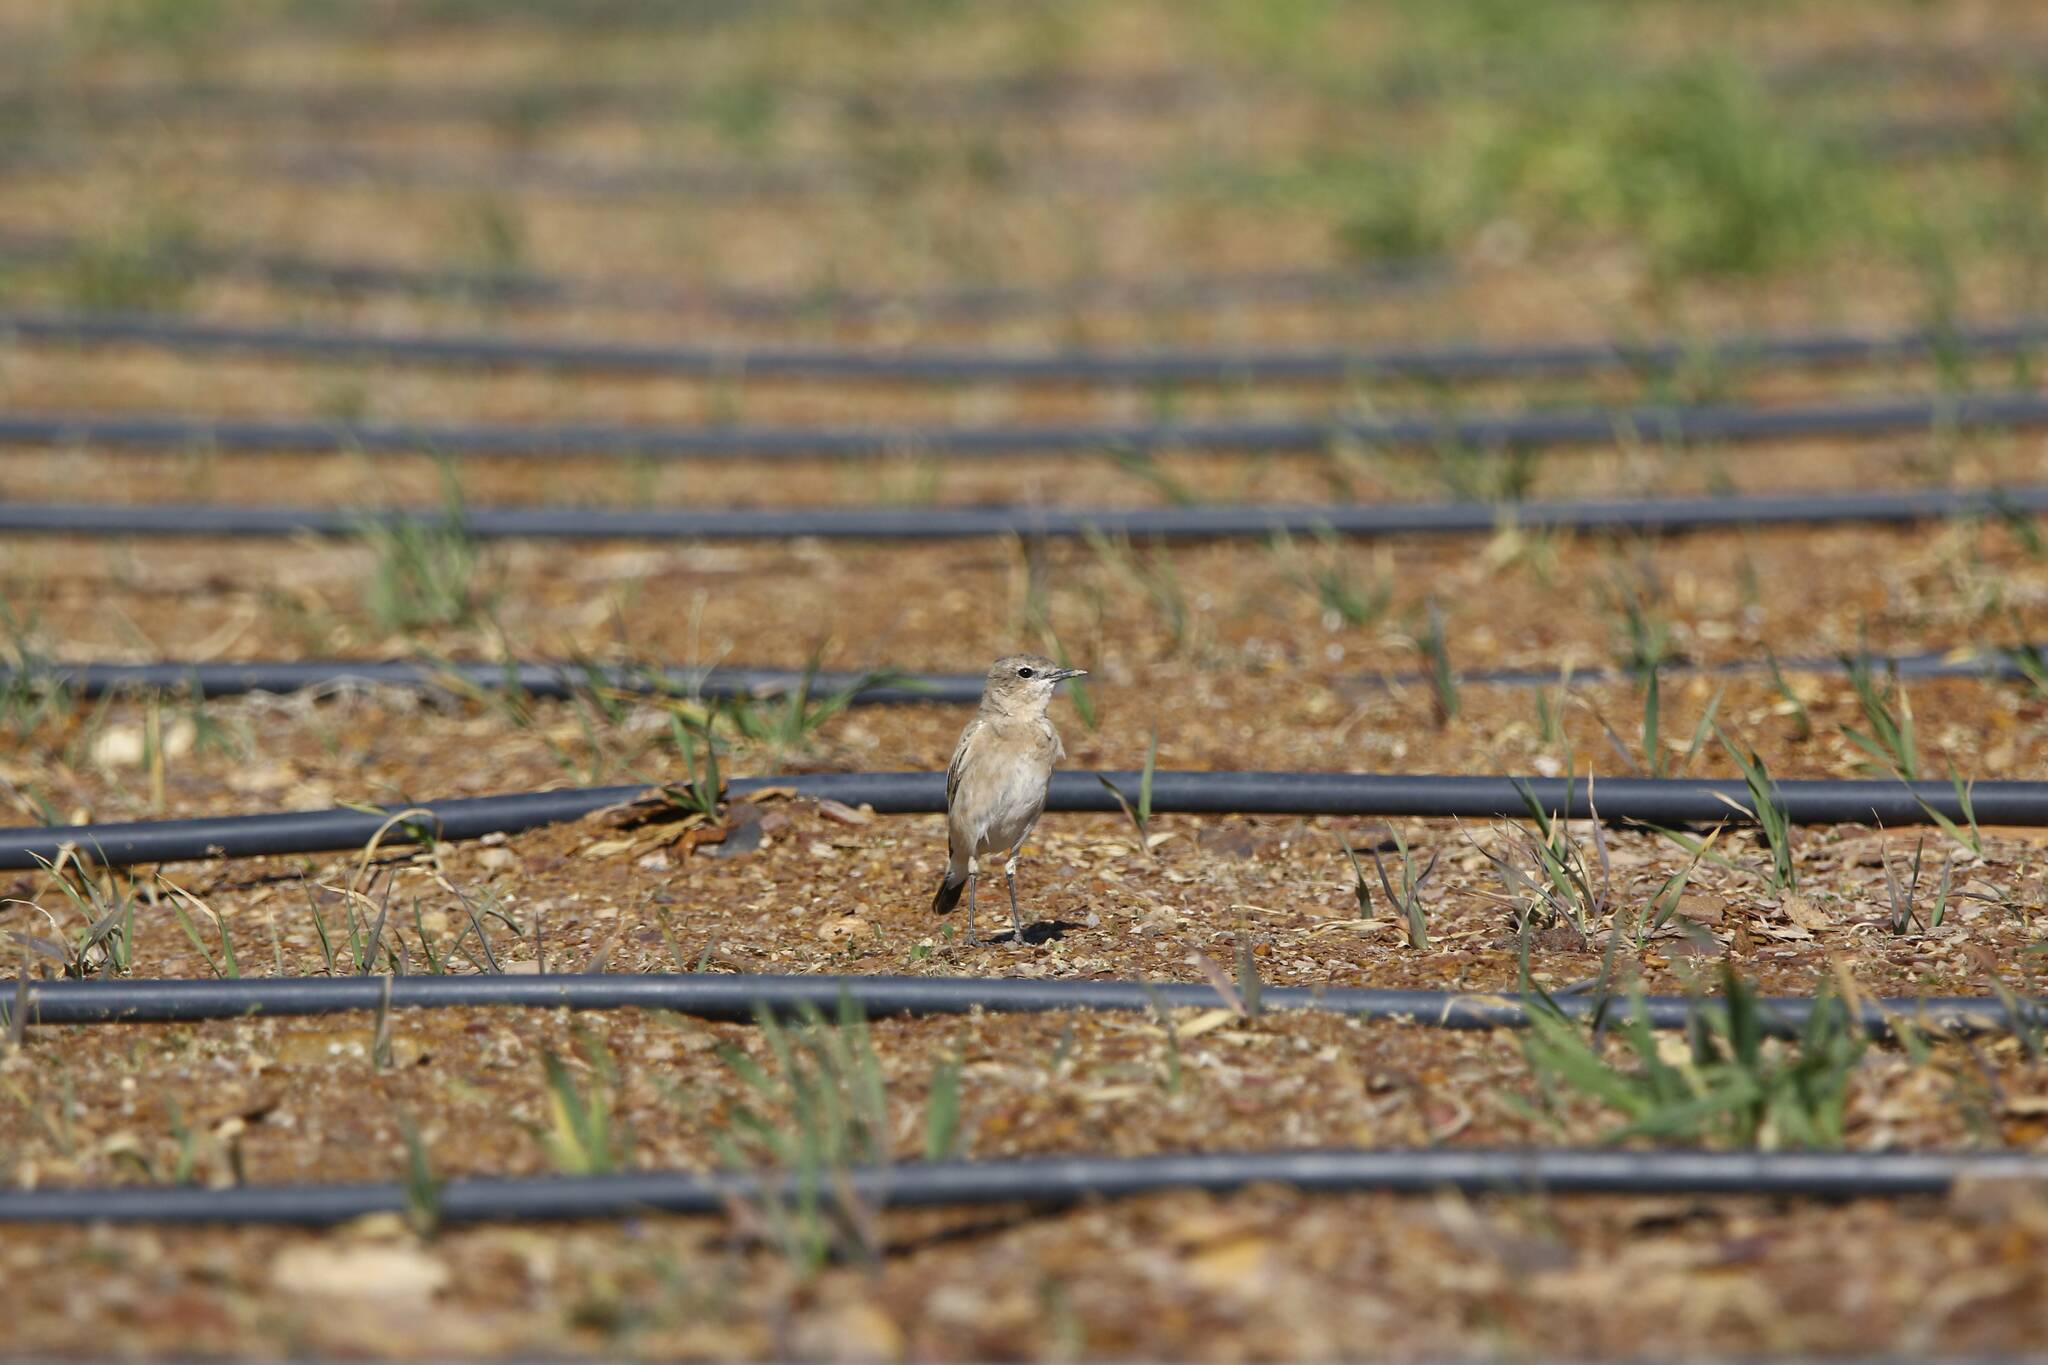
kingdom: Animalia
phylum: Chordata
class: Aves
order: Passeriformes
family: Muscicapidae
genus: Oenanthe
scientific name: Oenanthe isabellina
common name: Isabelline wheatear
